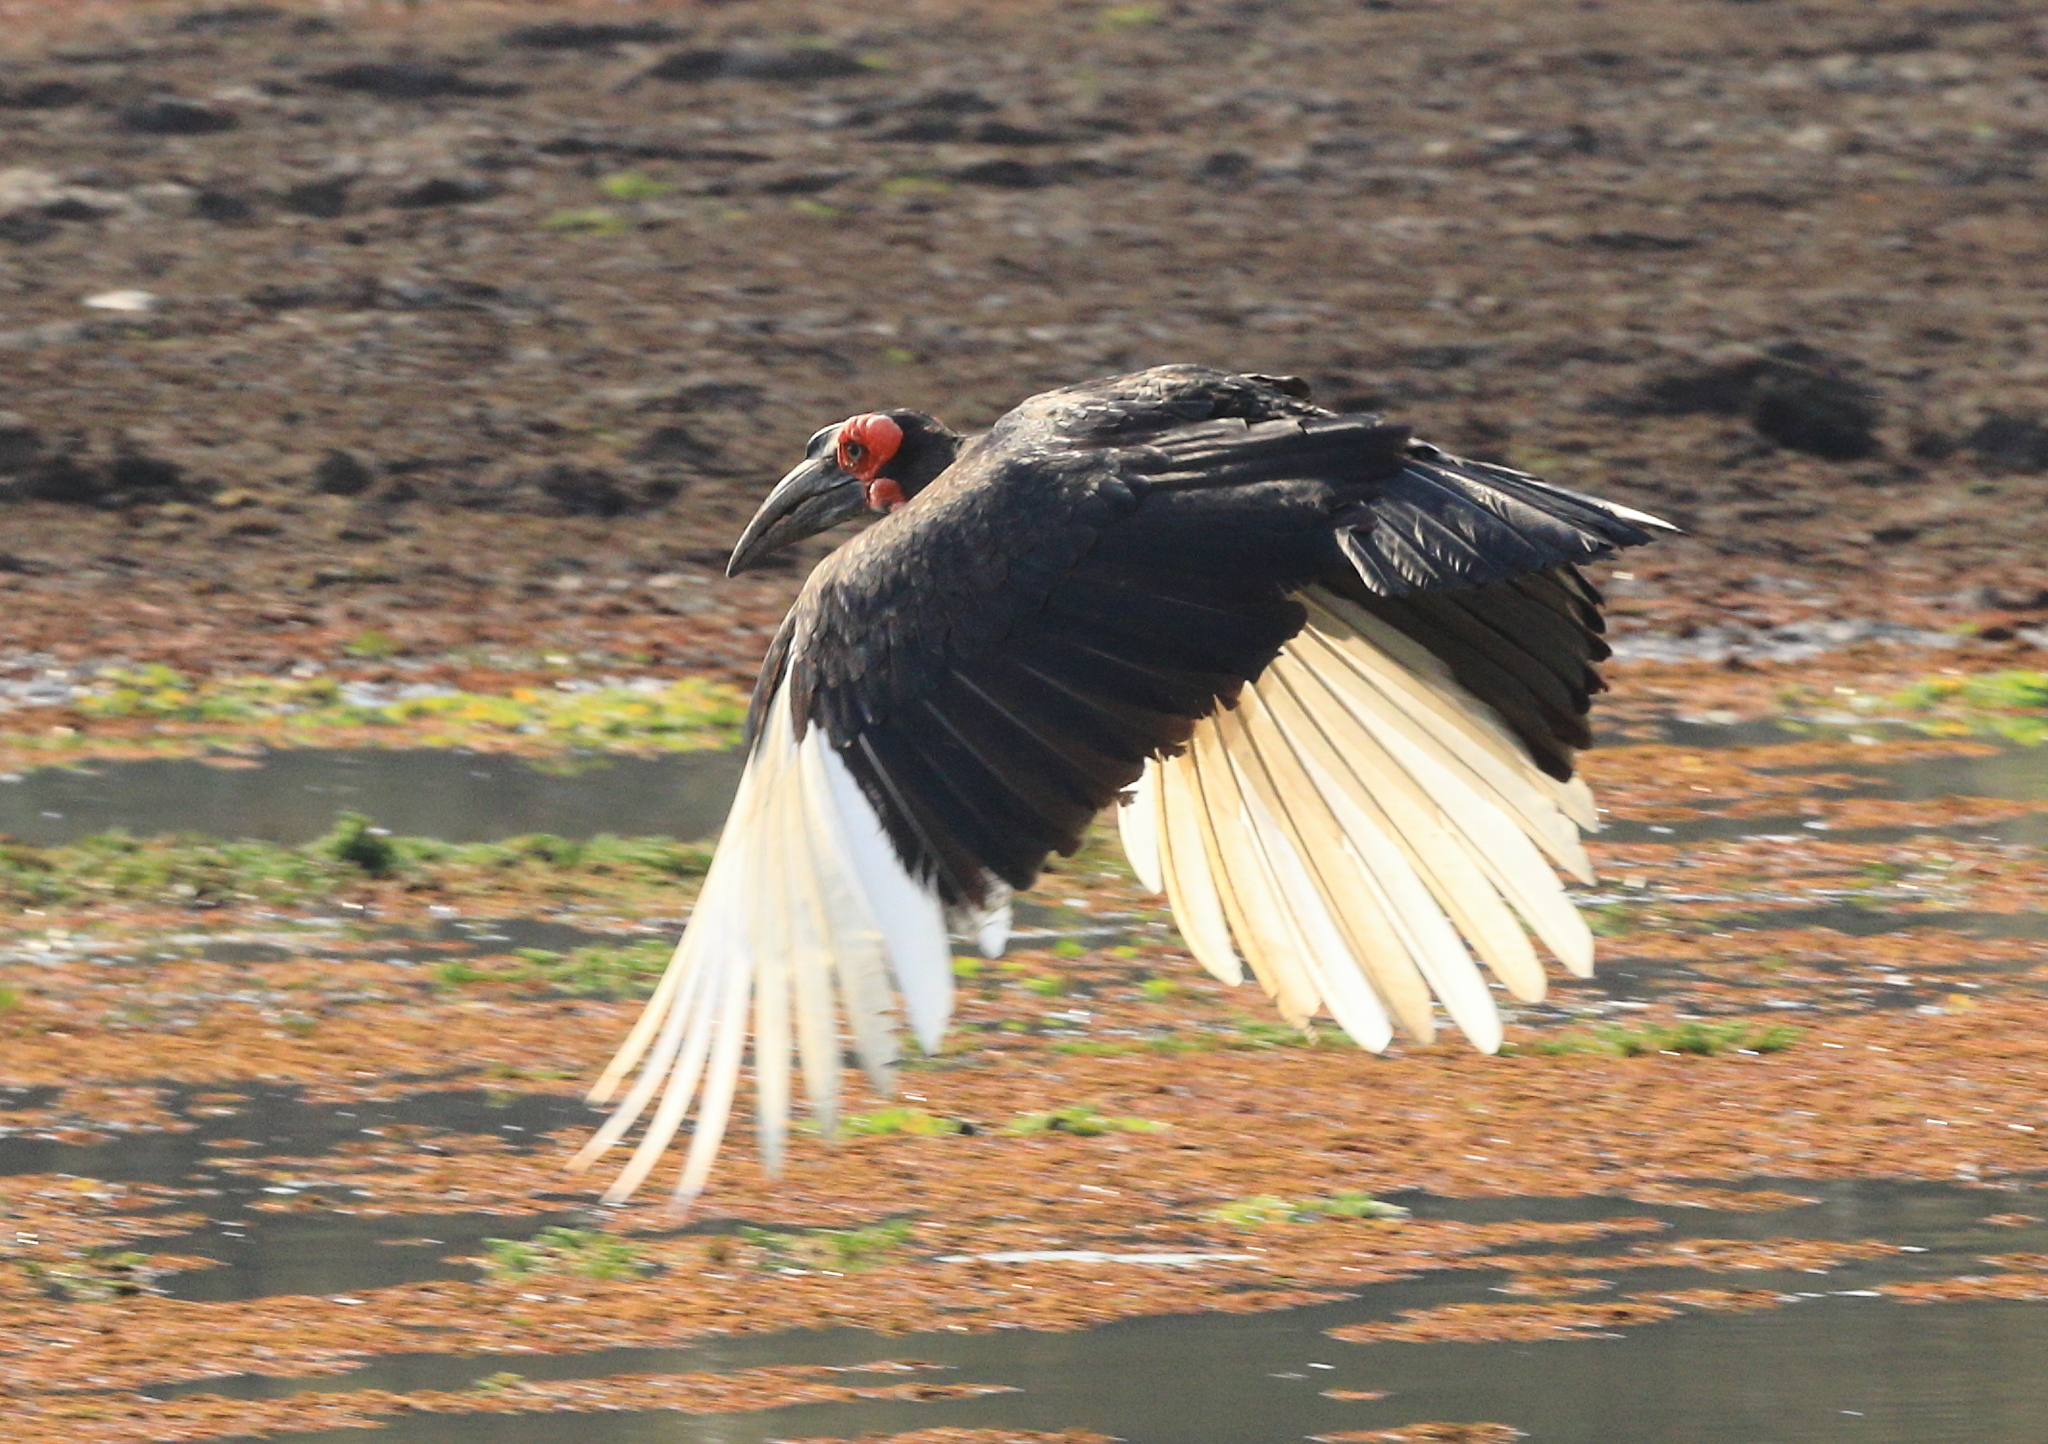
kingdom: Animalia
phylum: Chordata
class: Aves
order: Bucerotiformes
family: Bucorvidae
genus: Bucorvus
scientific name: Bucorvus leadbeateri
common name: Southern ground-hornbill
